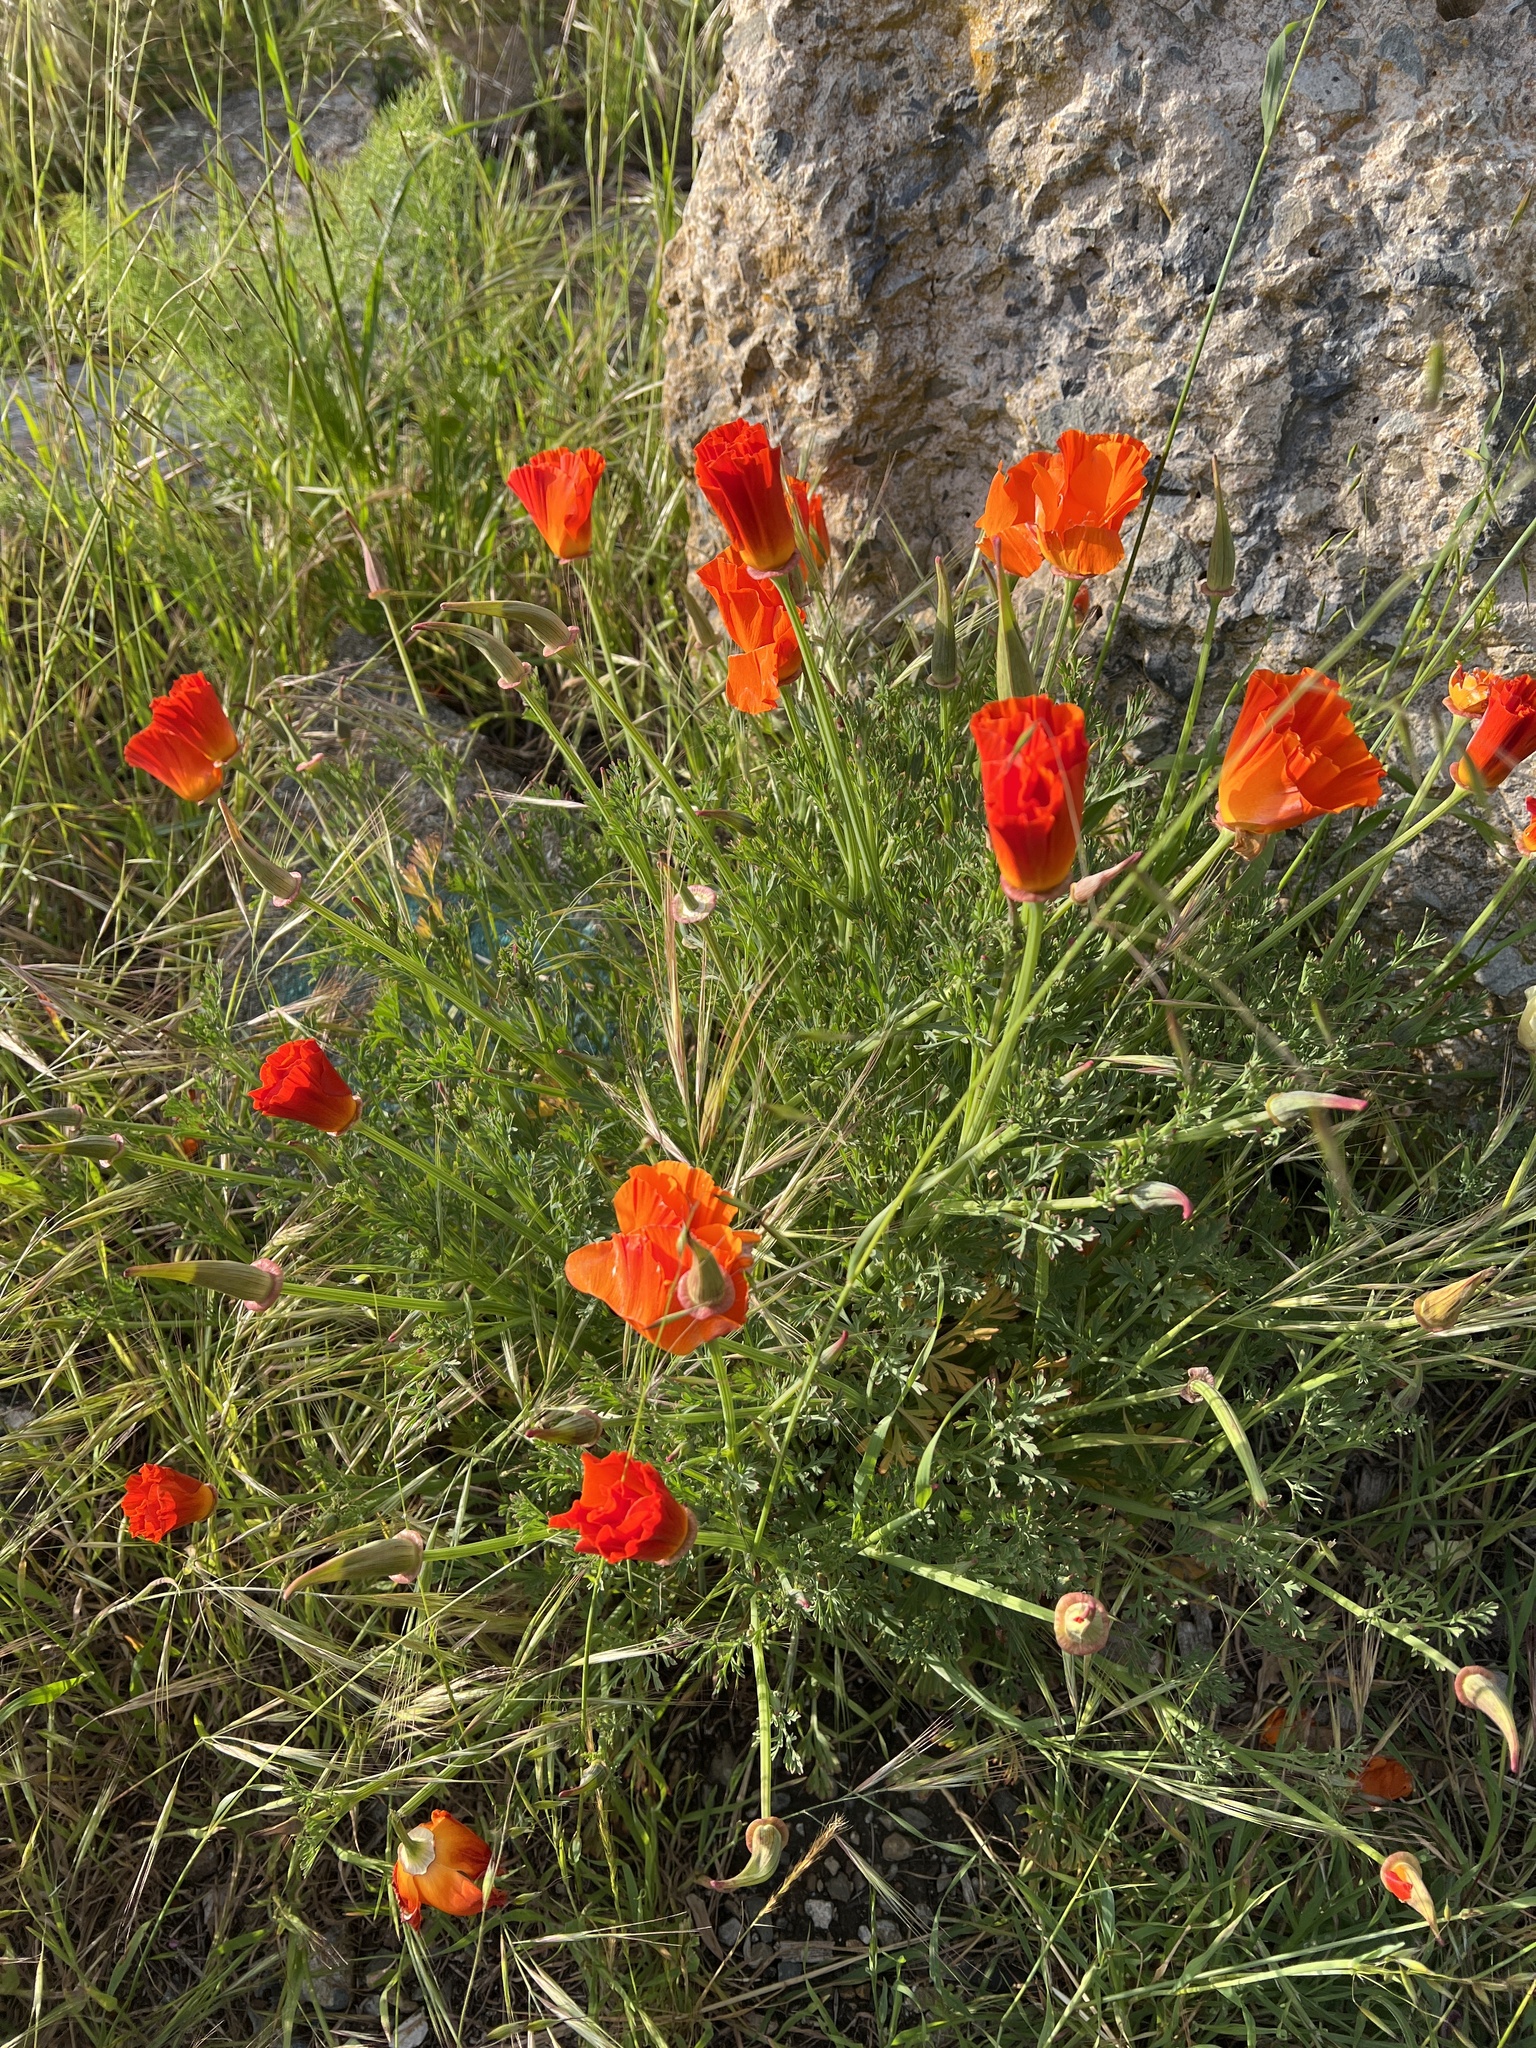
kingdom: Plantae
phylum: Tracheophyta
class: Magnoliopsida
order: Ranunculales
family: Papaveraceae
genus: Eschscholzia
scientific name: Eschscholzia californica
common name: California poppy
